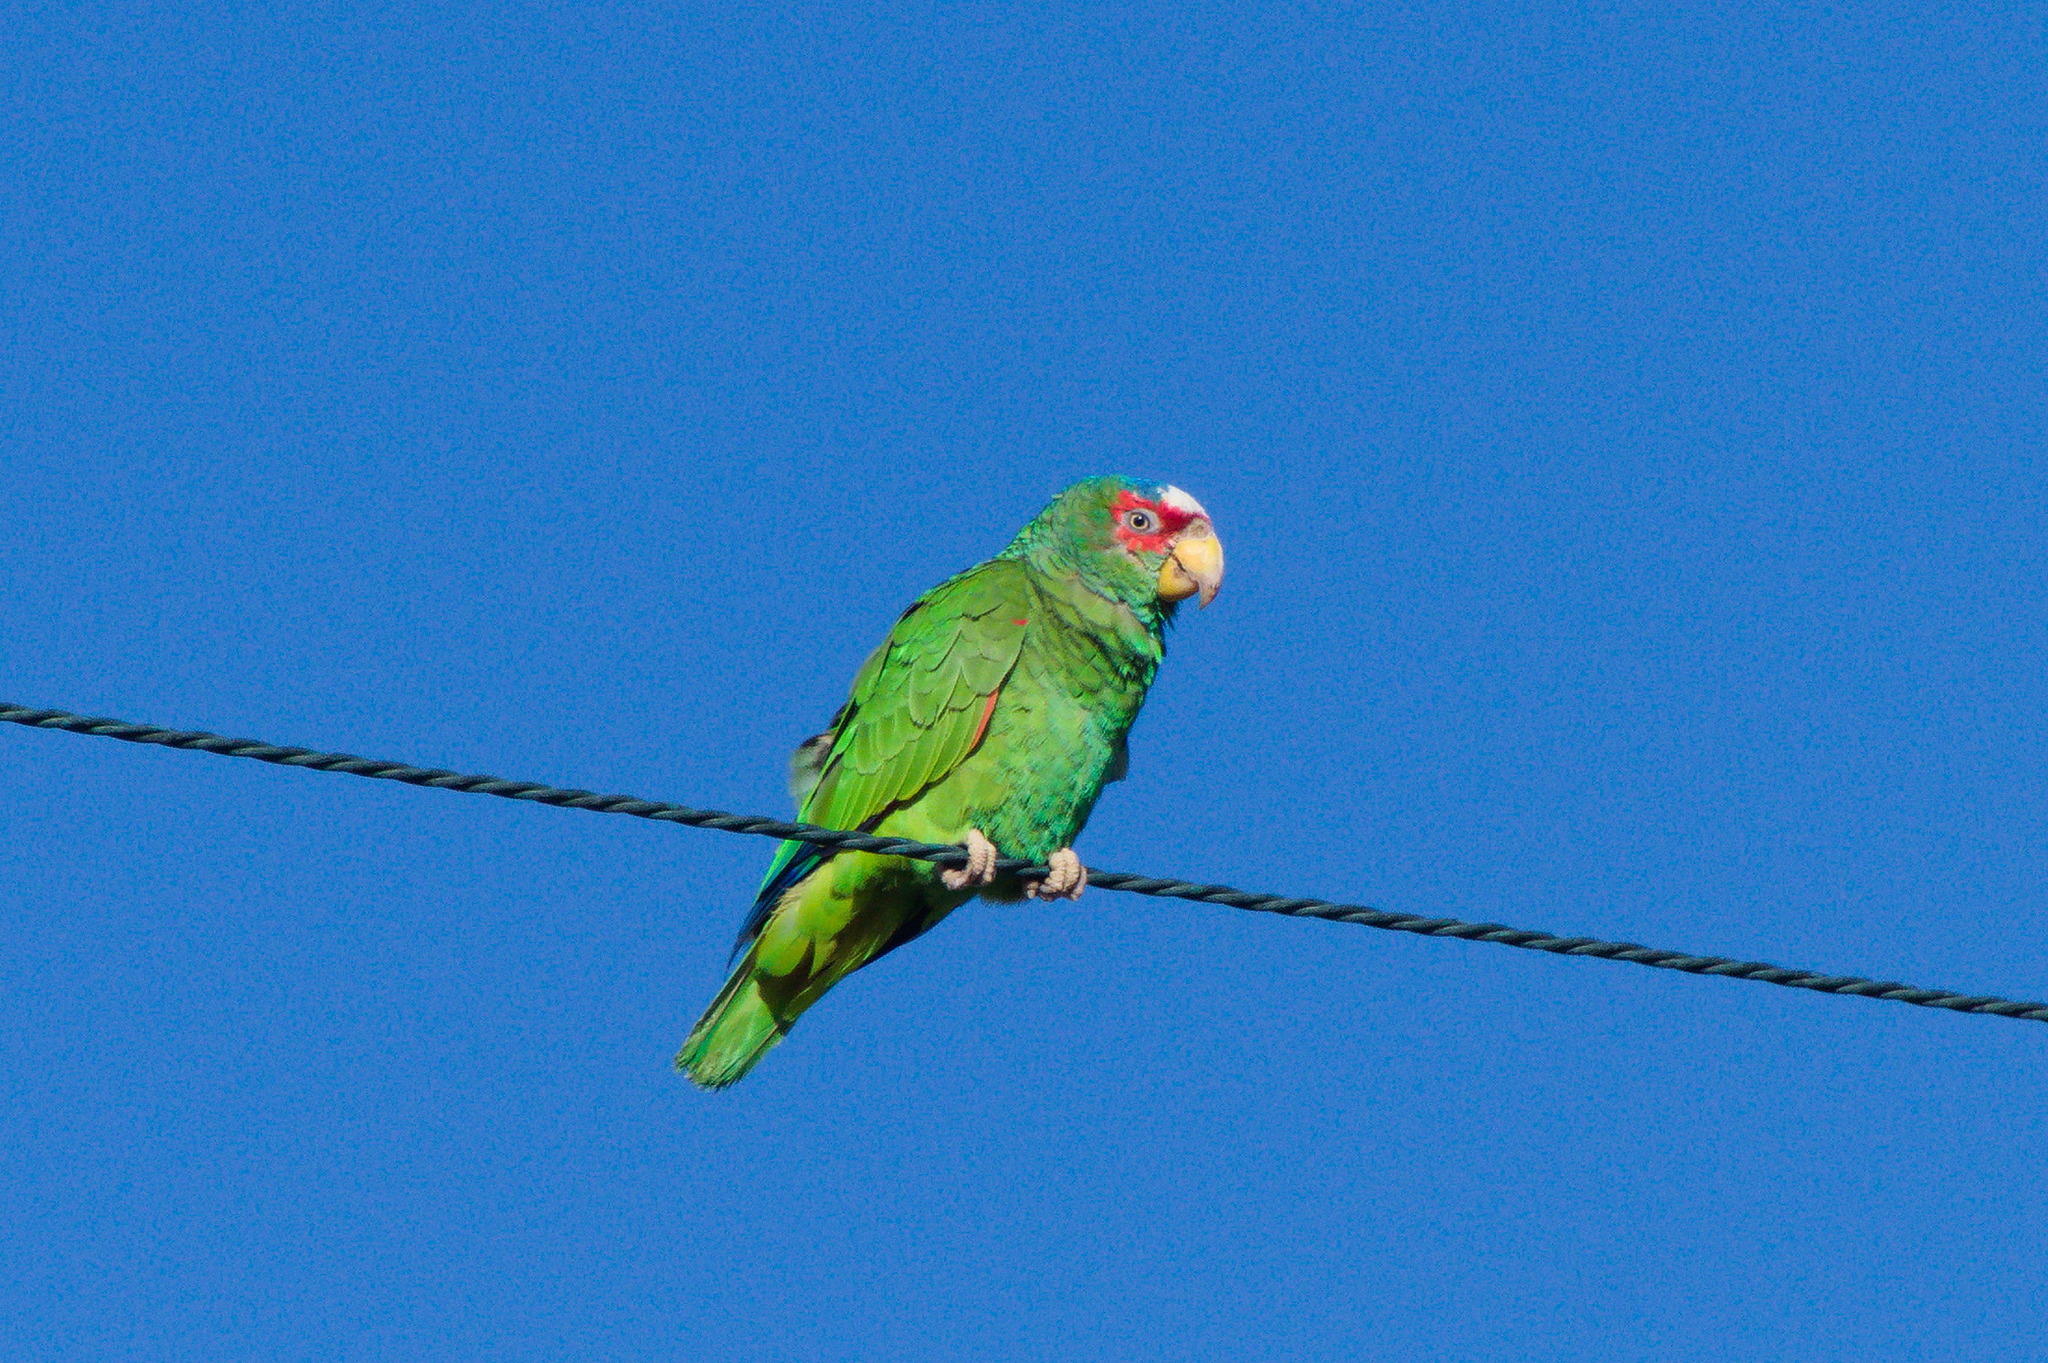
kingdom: Animalia
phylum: Chordata
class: Aves
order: Psittaciformes
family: Psittacidae
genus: Amazona
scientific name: Amazona albifrons
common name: White-fronted amazon
